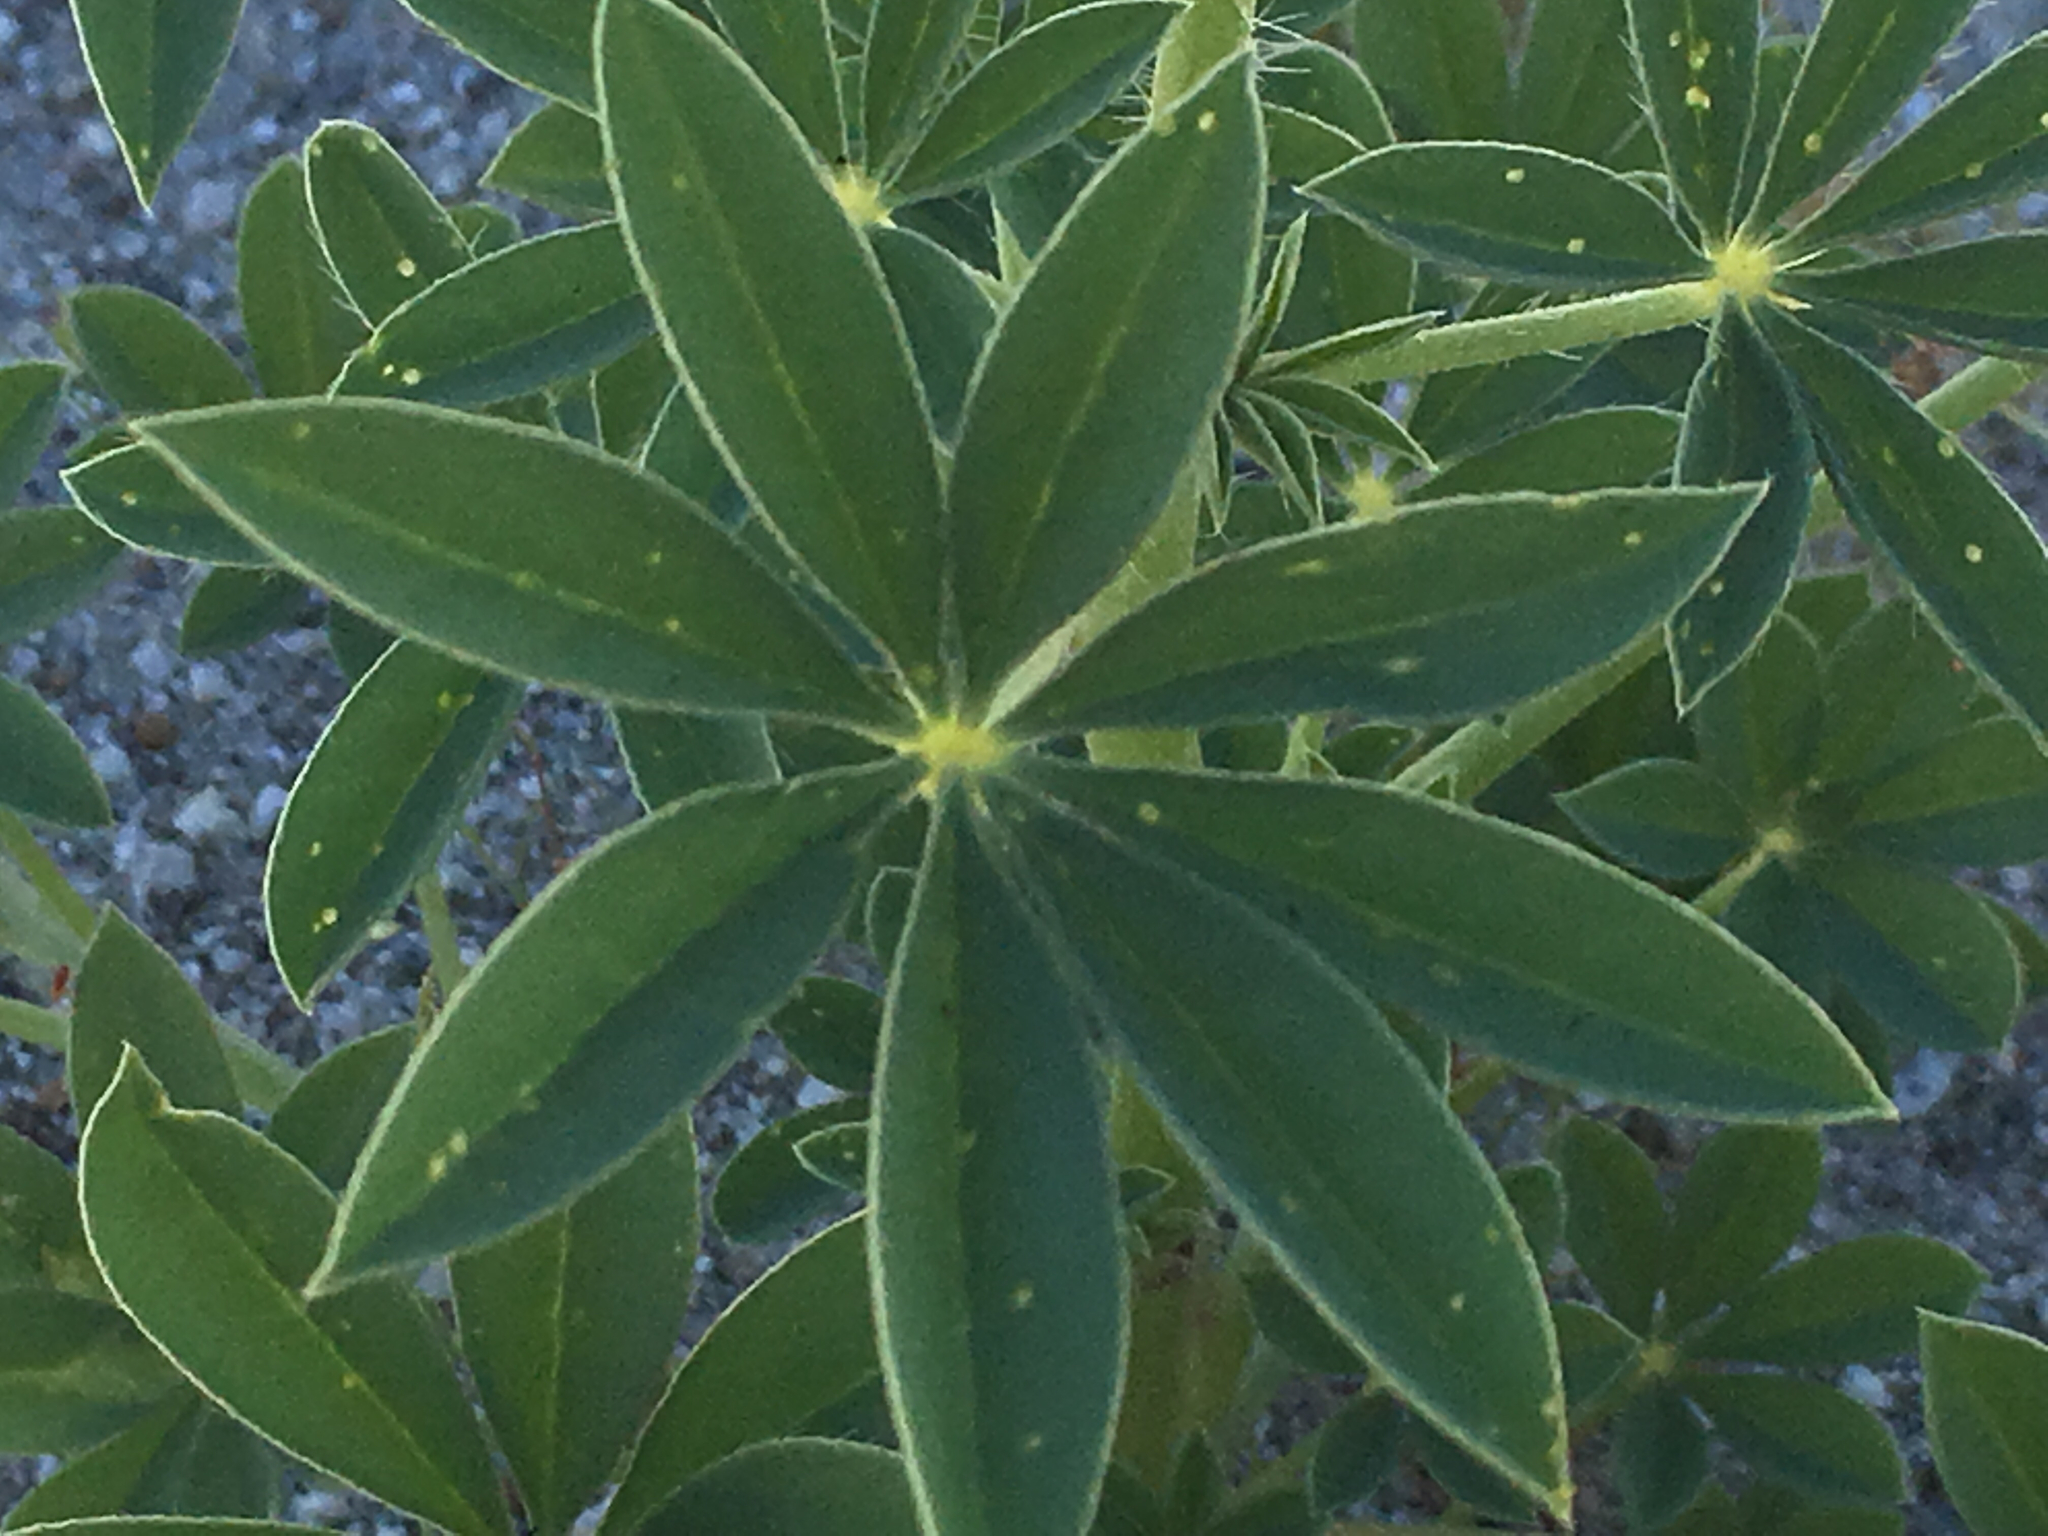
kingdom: Plantae
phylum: Tracheophyta
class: Magnoliopsida
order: Fabales
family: Fabaceae
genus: Lupinus
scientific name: Lupinus arizonicus
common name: Arizona lupine
